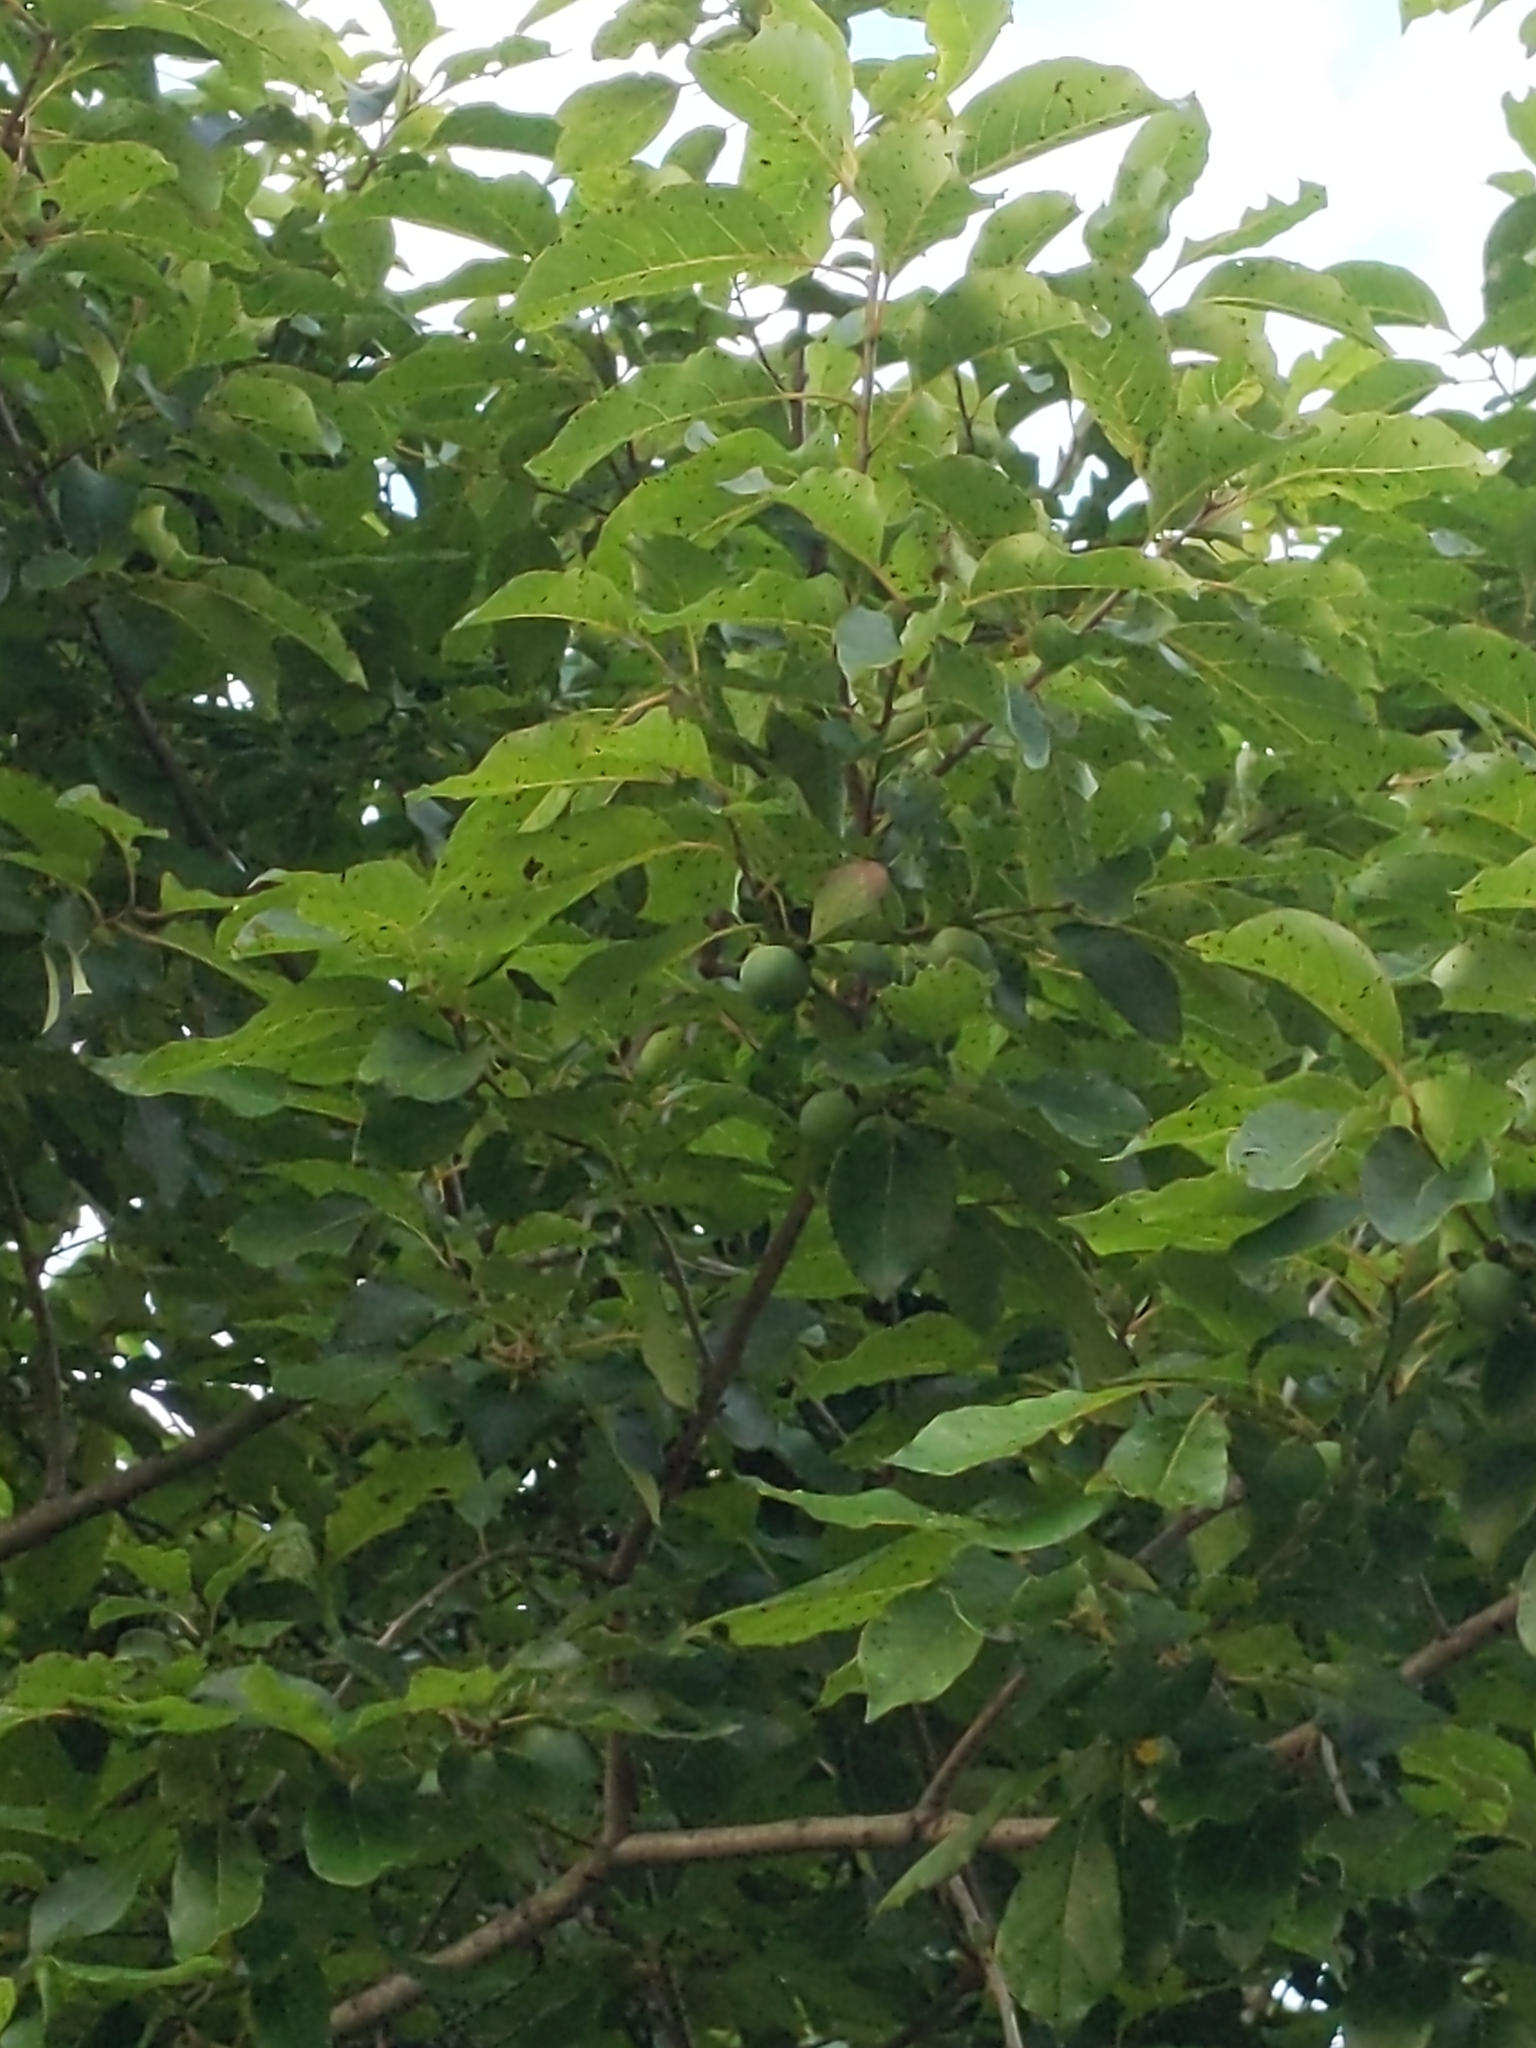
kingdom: Plantae
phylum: Tracheophyta
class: Magnoliopsida
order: Ericales
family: Ebenaceae
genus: Diospyros
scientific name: Diospyros virginiana
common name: Persimmon
